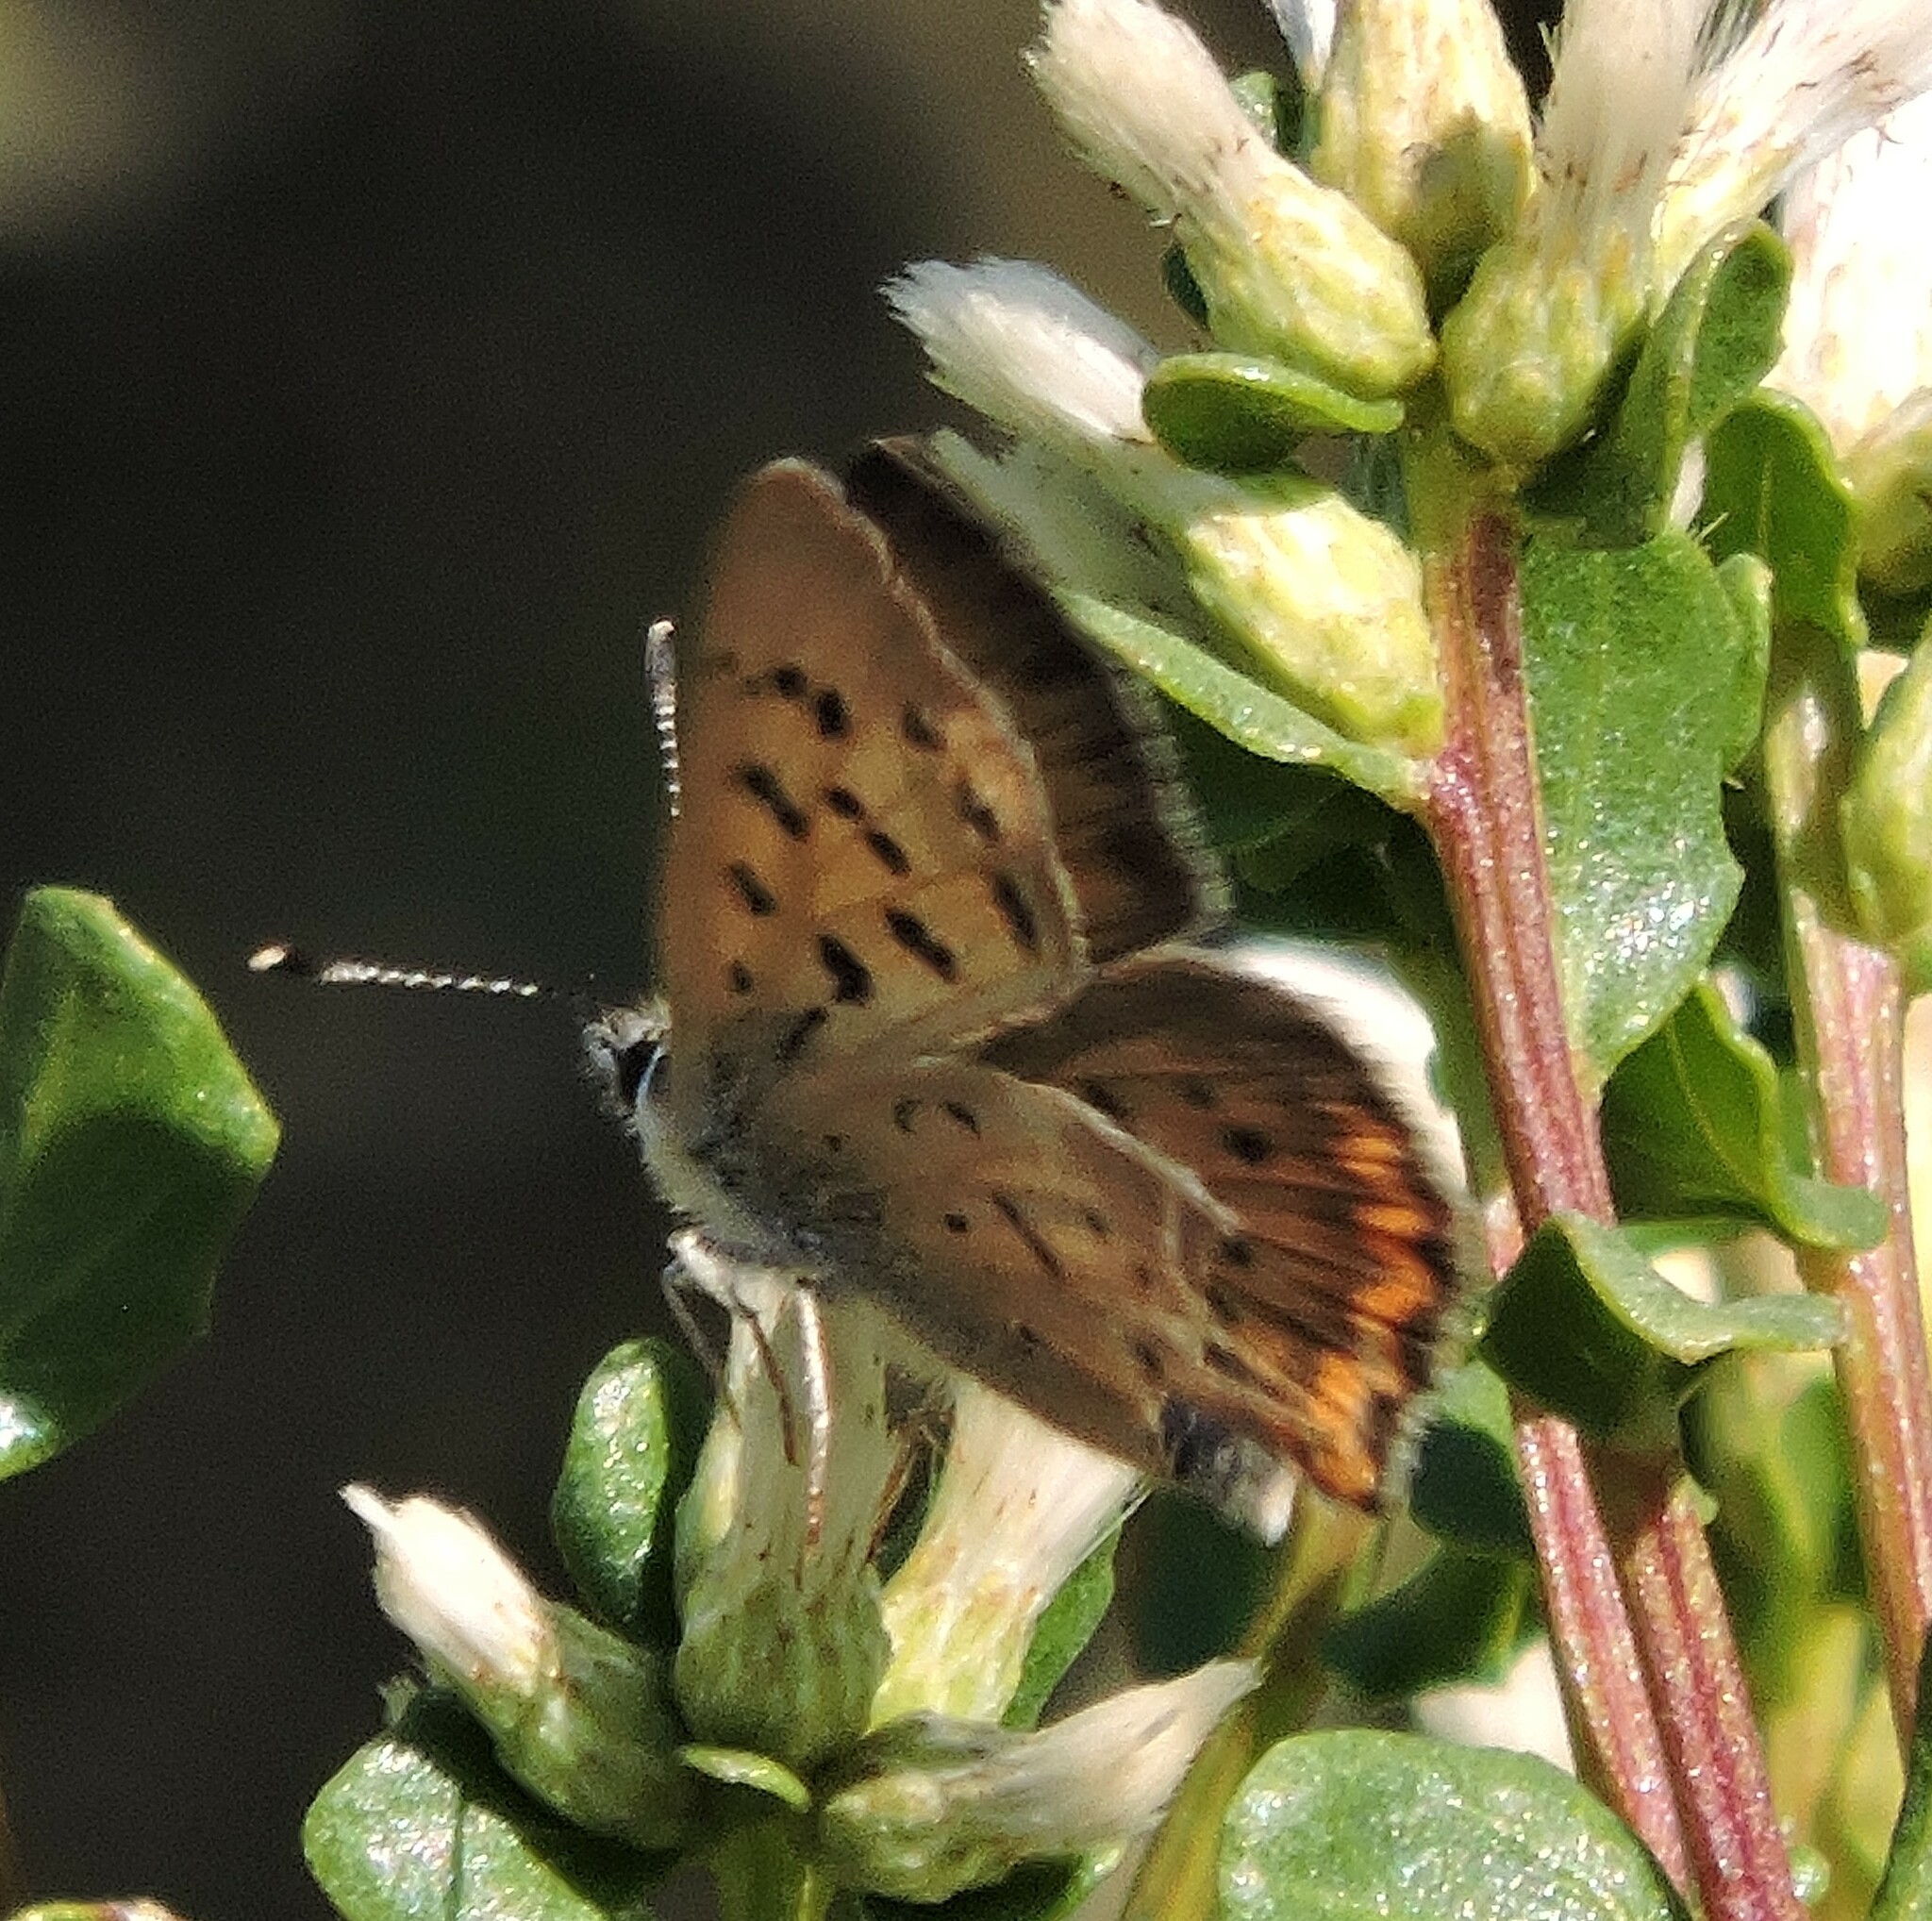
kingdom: Animalia
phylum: Arthropoda
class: Insecta
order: Lepidoptera
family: Lycaenidae
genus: Tharsalea
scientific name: Tharsalea helloides
